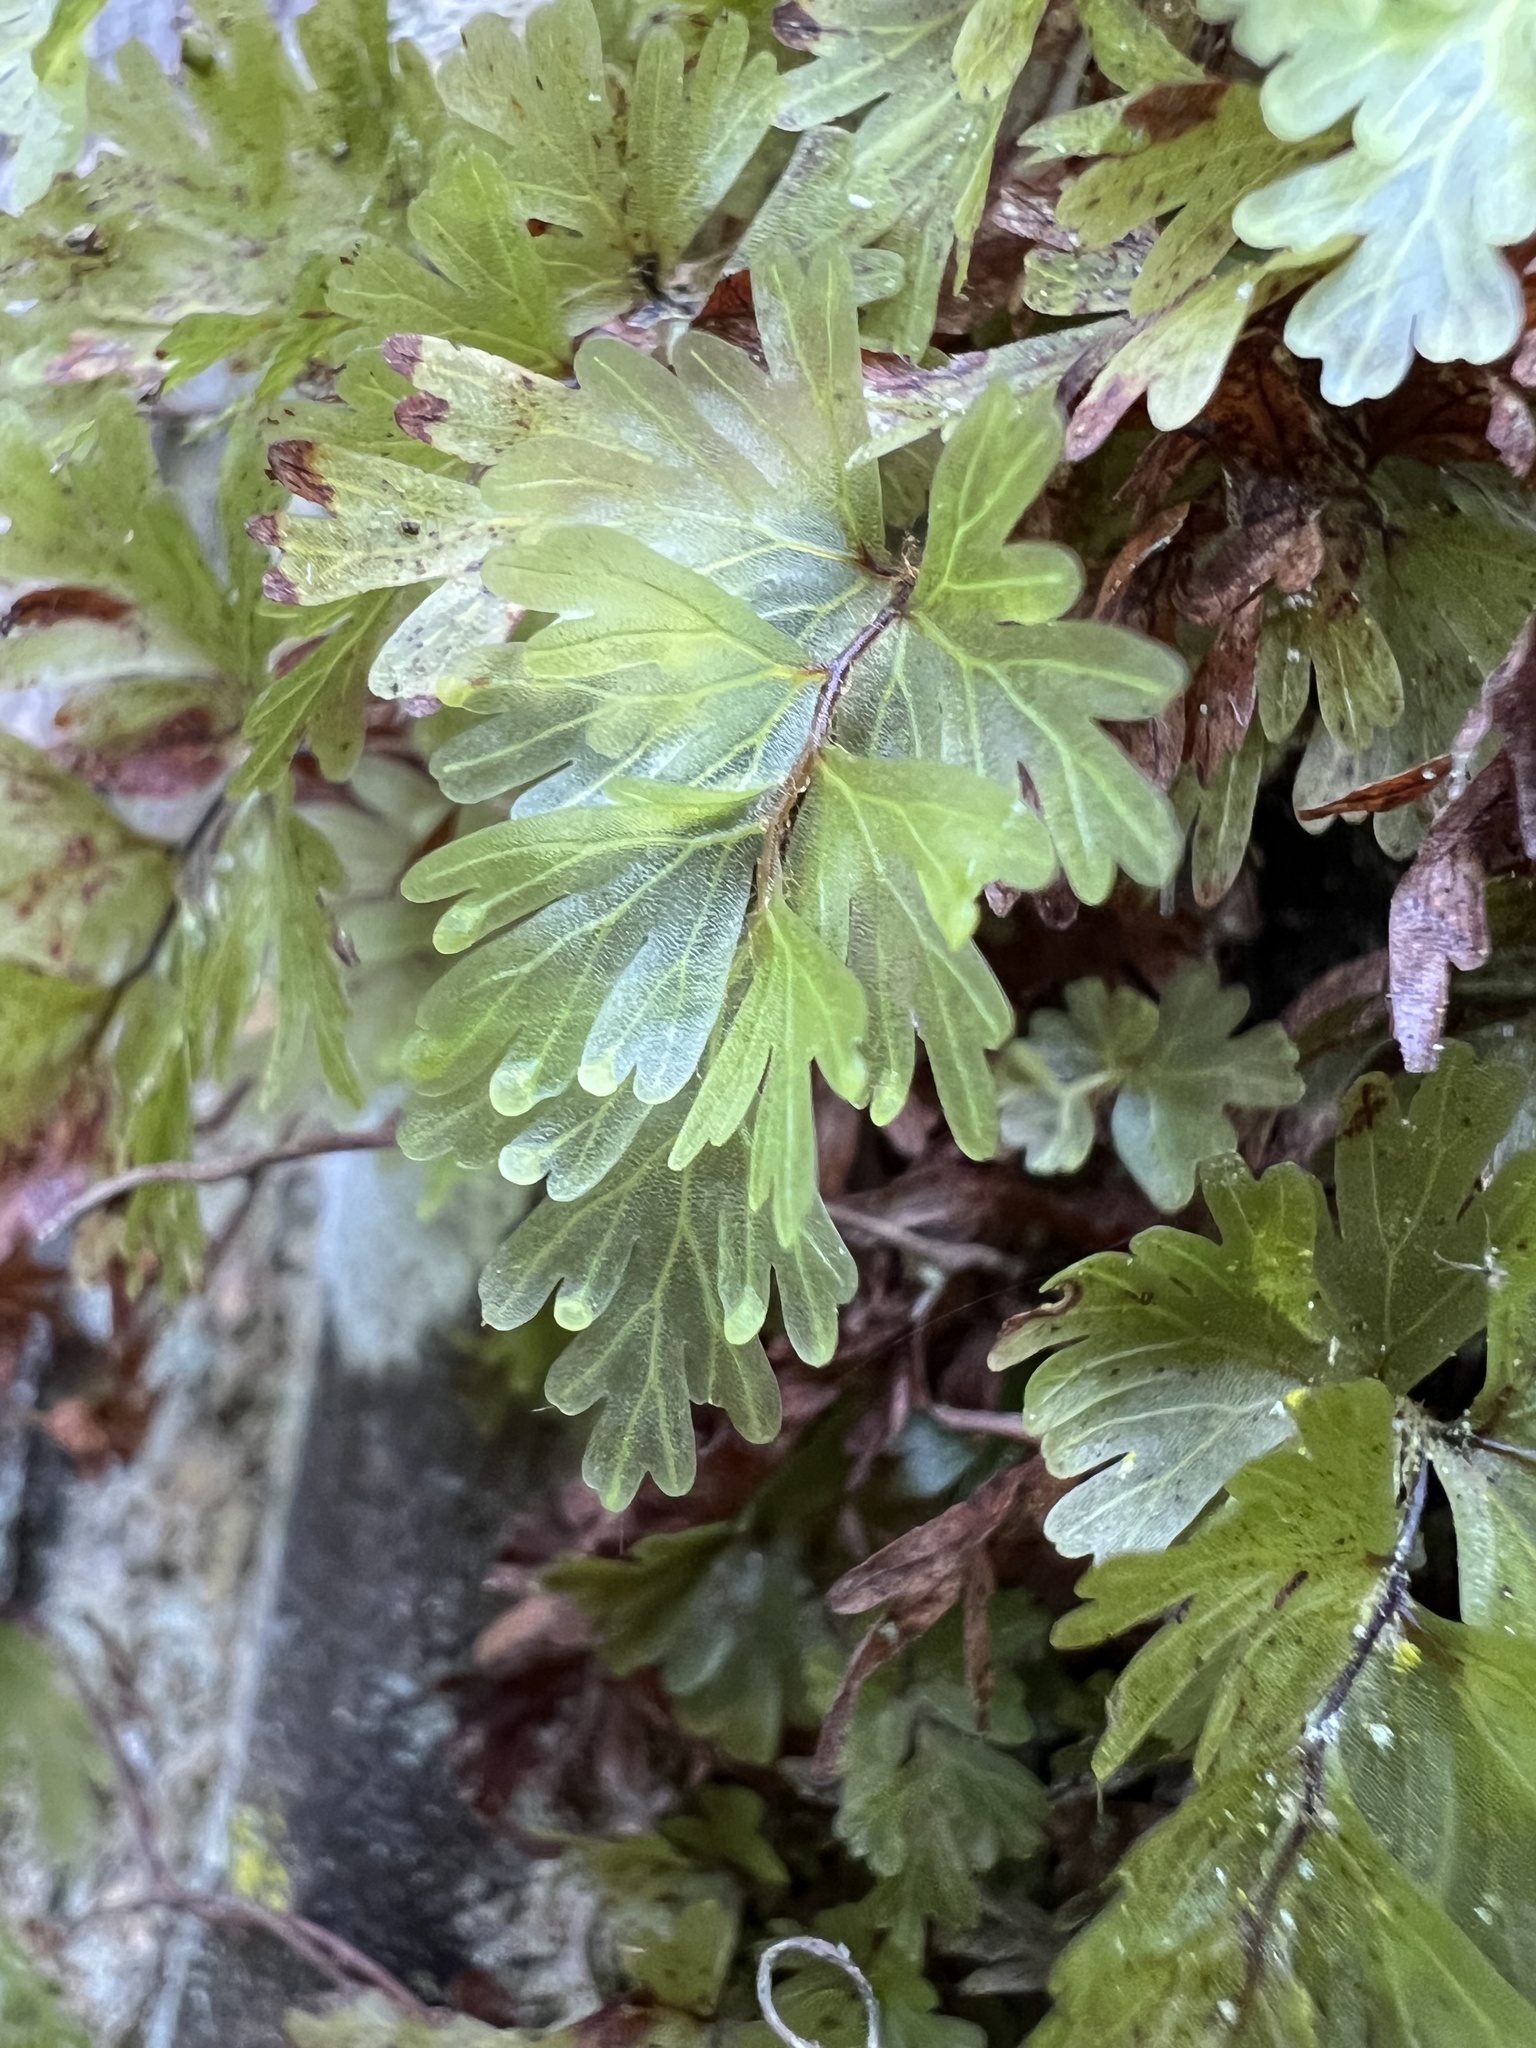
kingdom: Plantae
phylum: Tracheophyta
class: Polypodiopsida
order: Hymenophyllales
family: Hymenophyllaceae
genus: Hymenophyllum
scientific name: Hymenophyllum flabellatum
